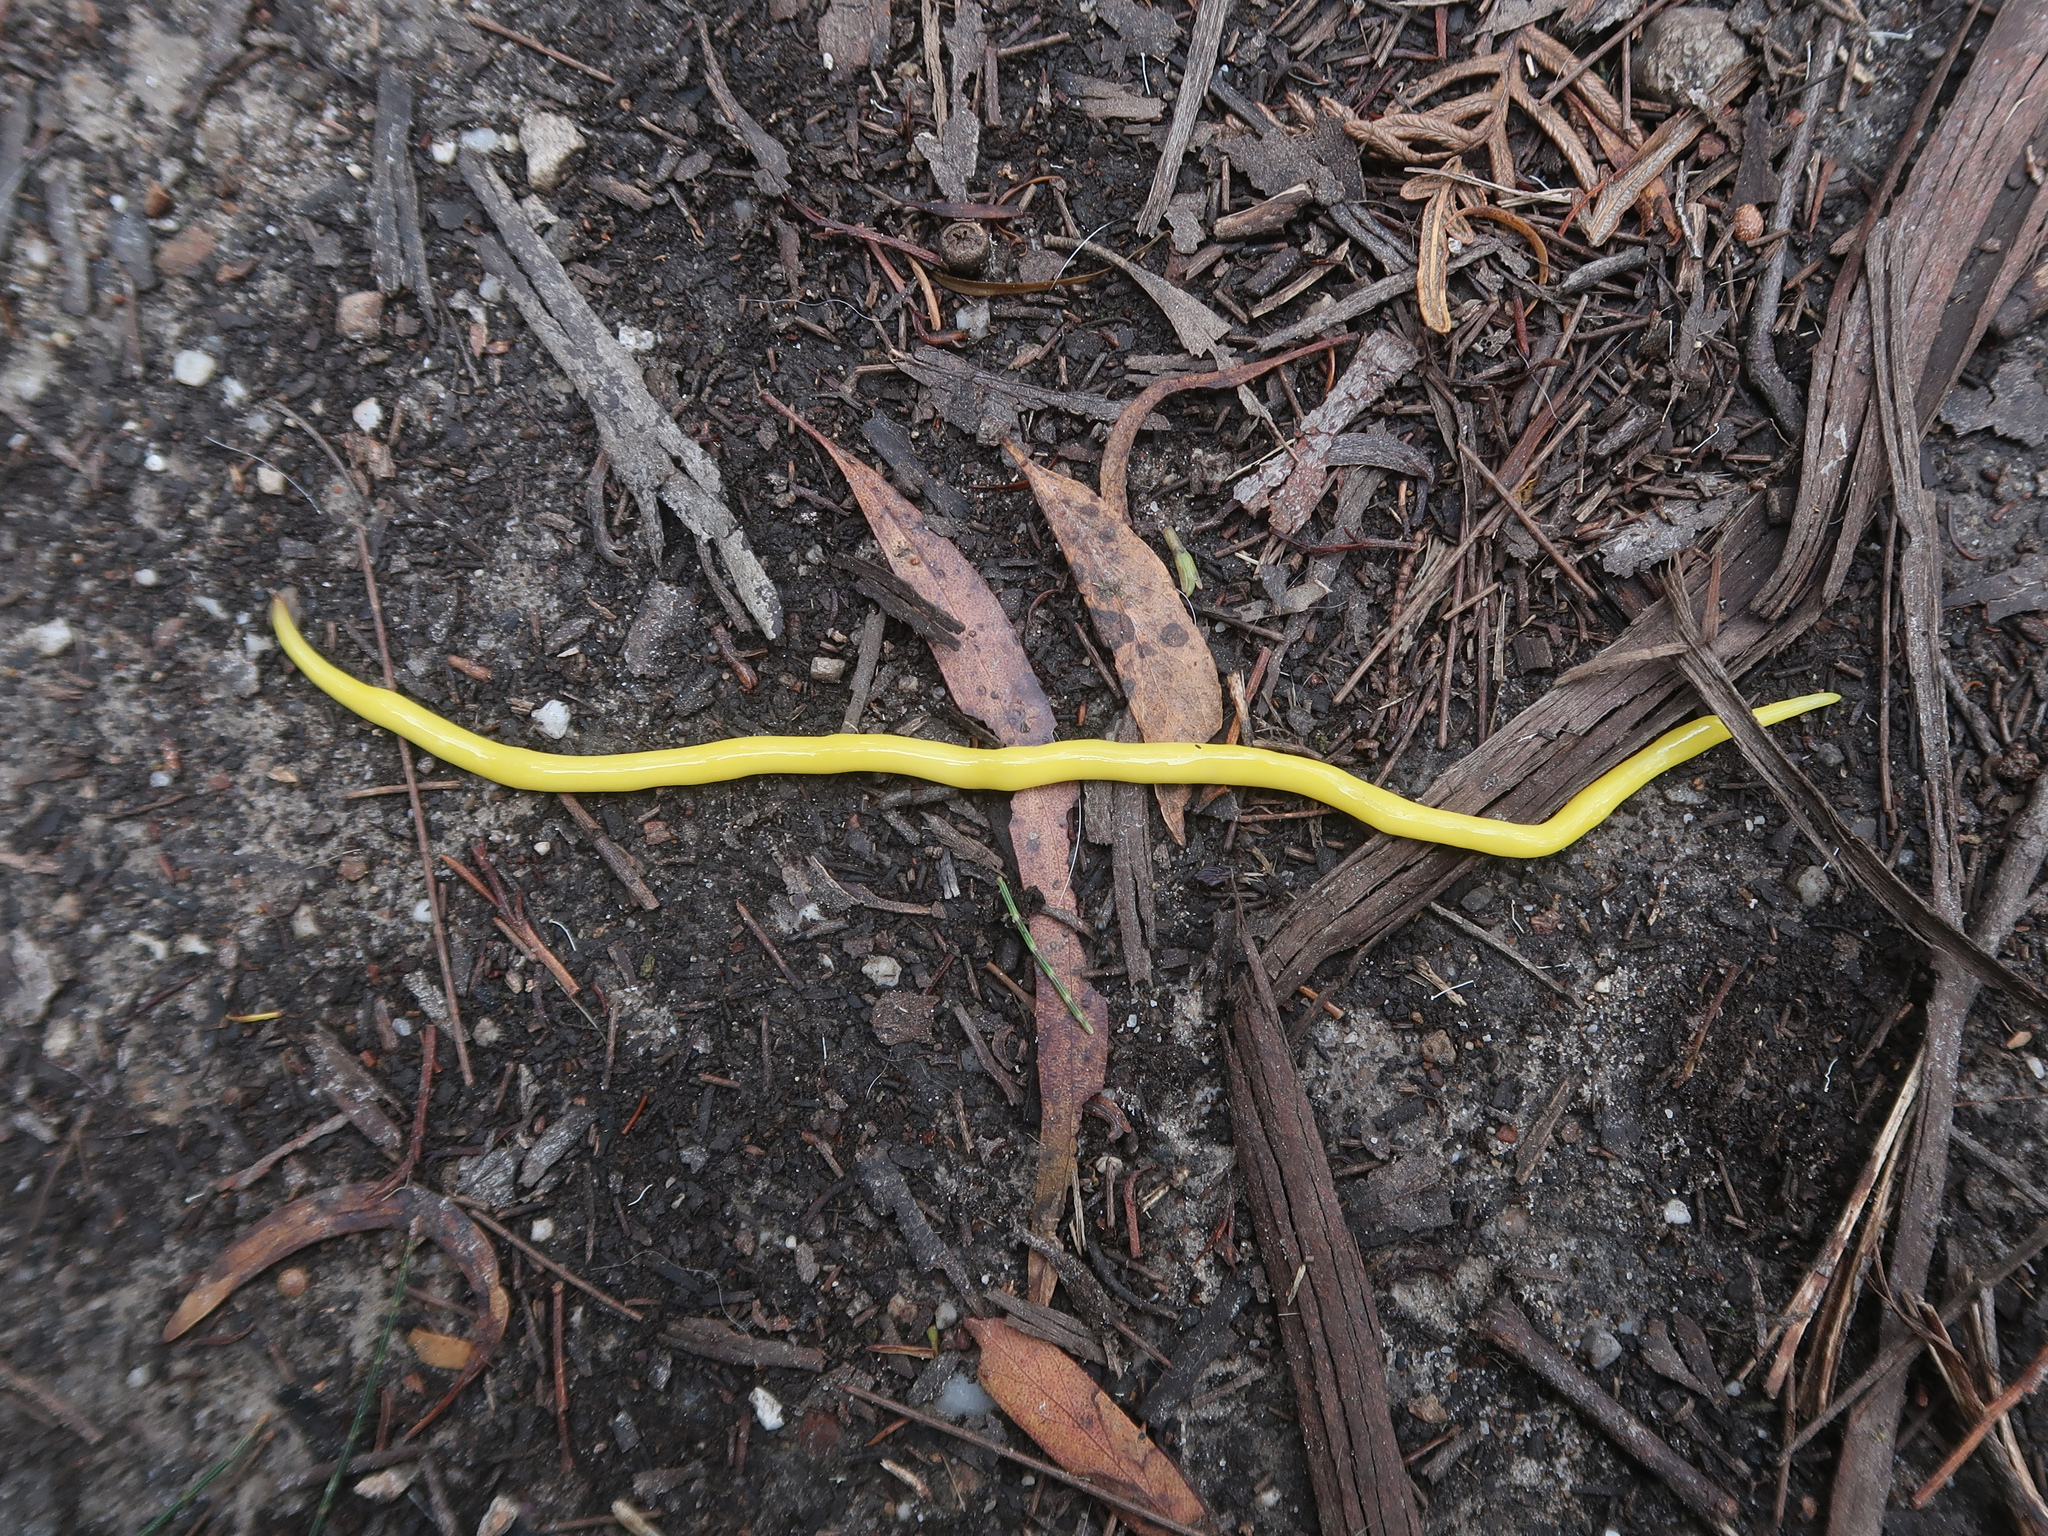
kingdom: Animalia
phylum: Platyhelminthes
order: Tricladida
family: Geoplanidae
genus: Fletchamia
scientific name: Fletchamia sugdeni
